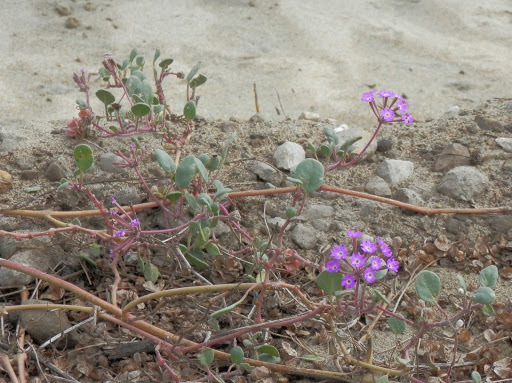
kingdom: Plantae
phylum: Tracheophyta
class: Magnoliopsida
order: Caryophyllales
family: Nyctaginaceae
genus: Abronia
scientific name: Abronia umbellata
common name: Sand-verbena
